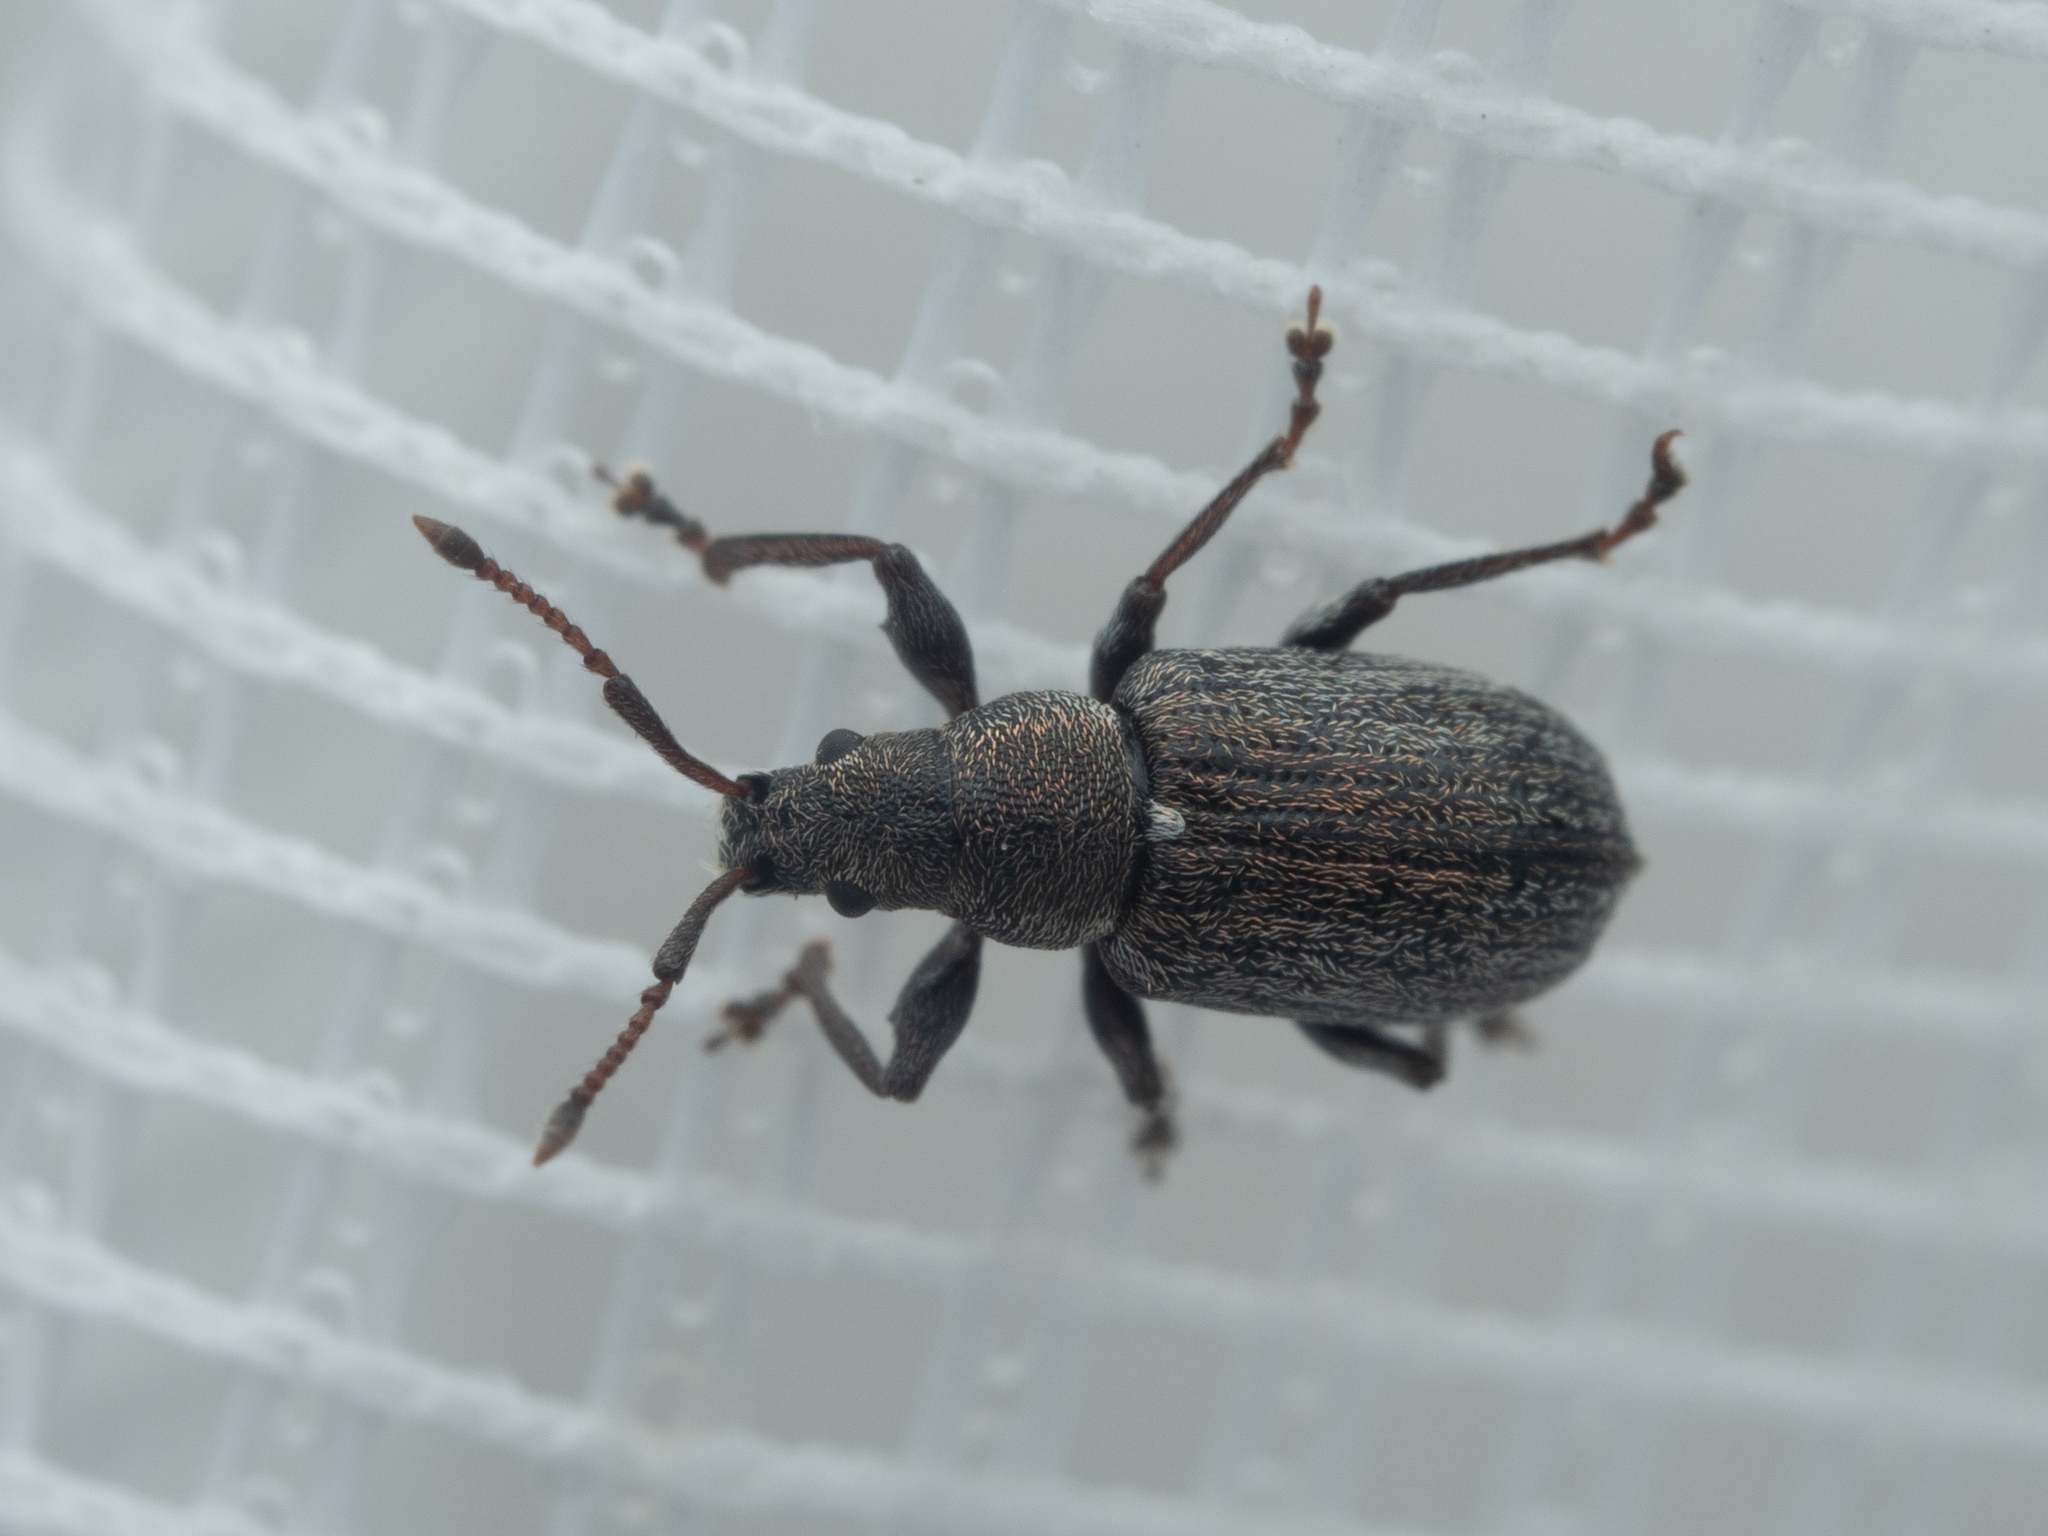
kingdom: Animalia
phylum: Arthropoda
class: Insecta
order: Coleoptera
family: Curculionidae
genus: Phyllobius
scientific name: Phyllobius pyri
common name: Common leaf weevil
